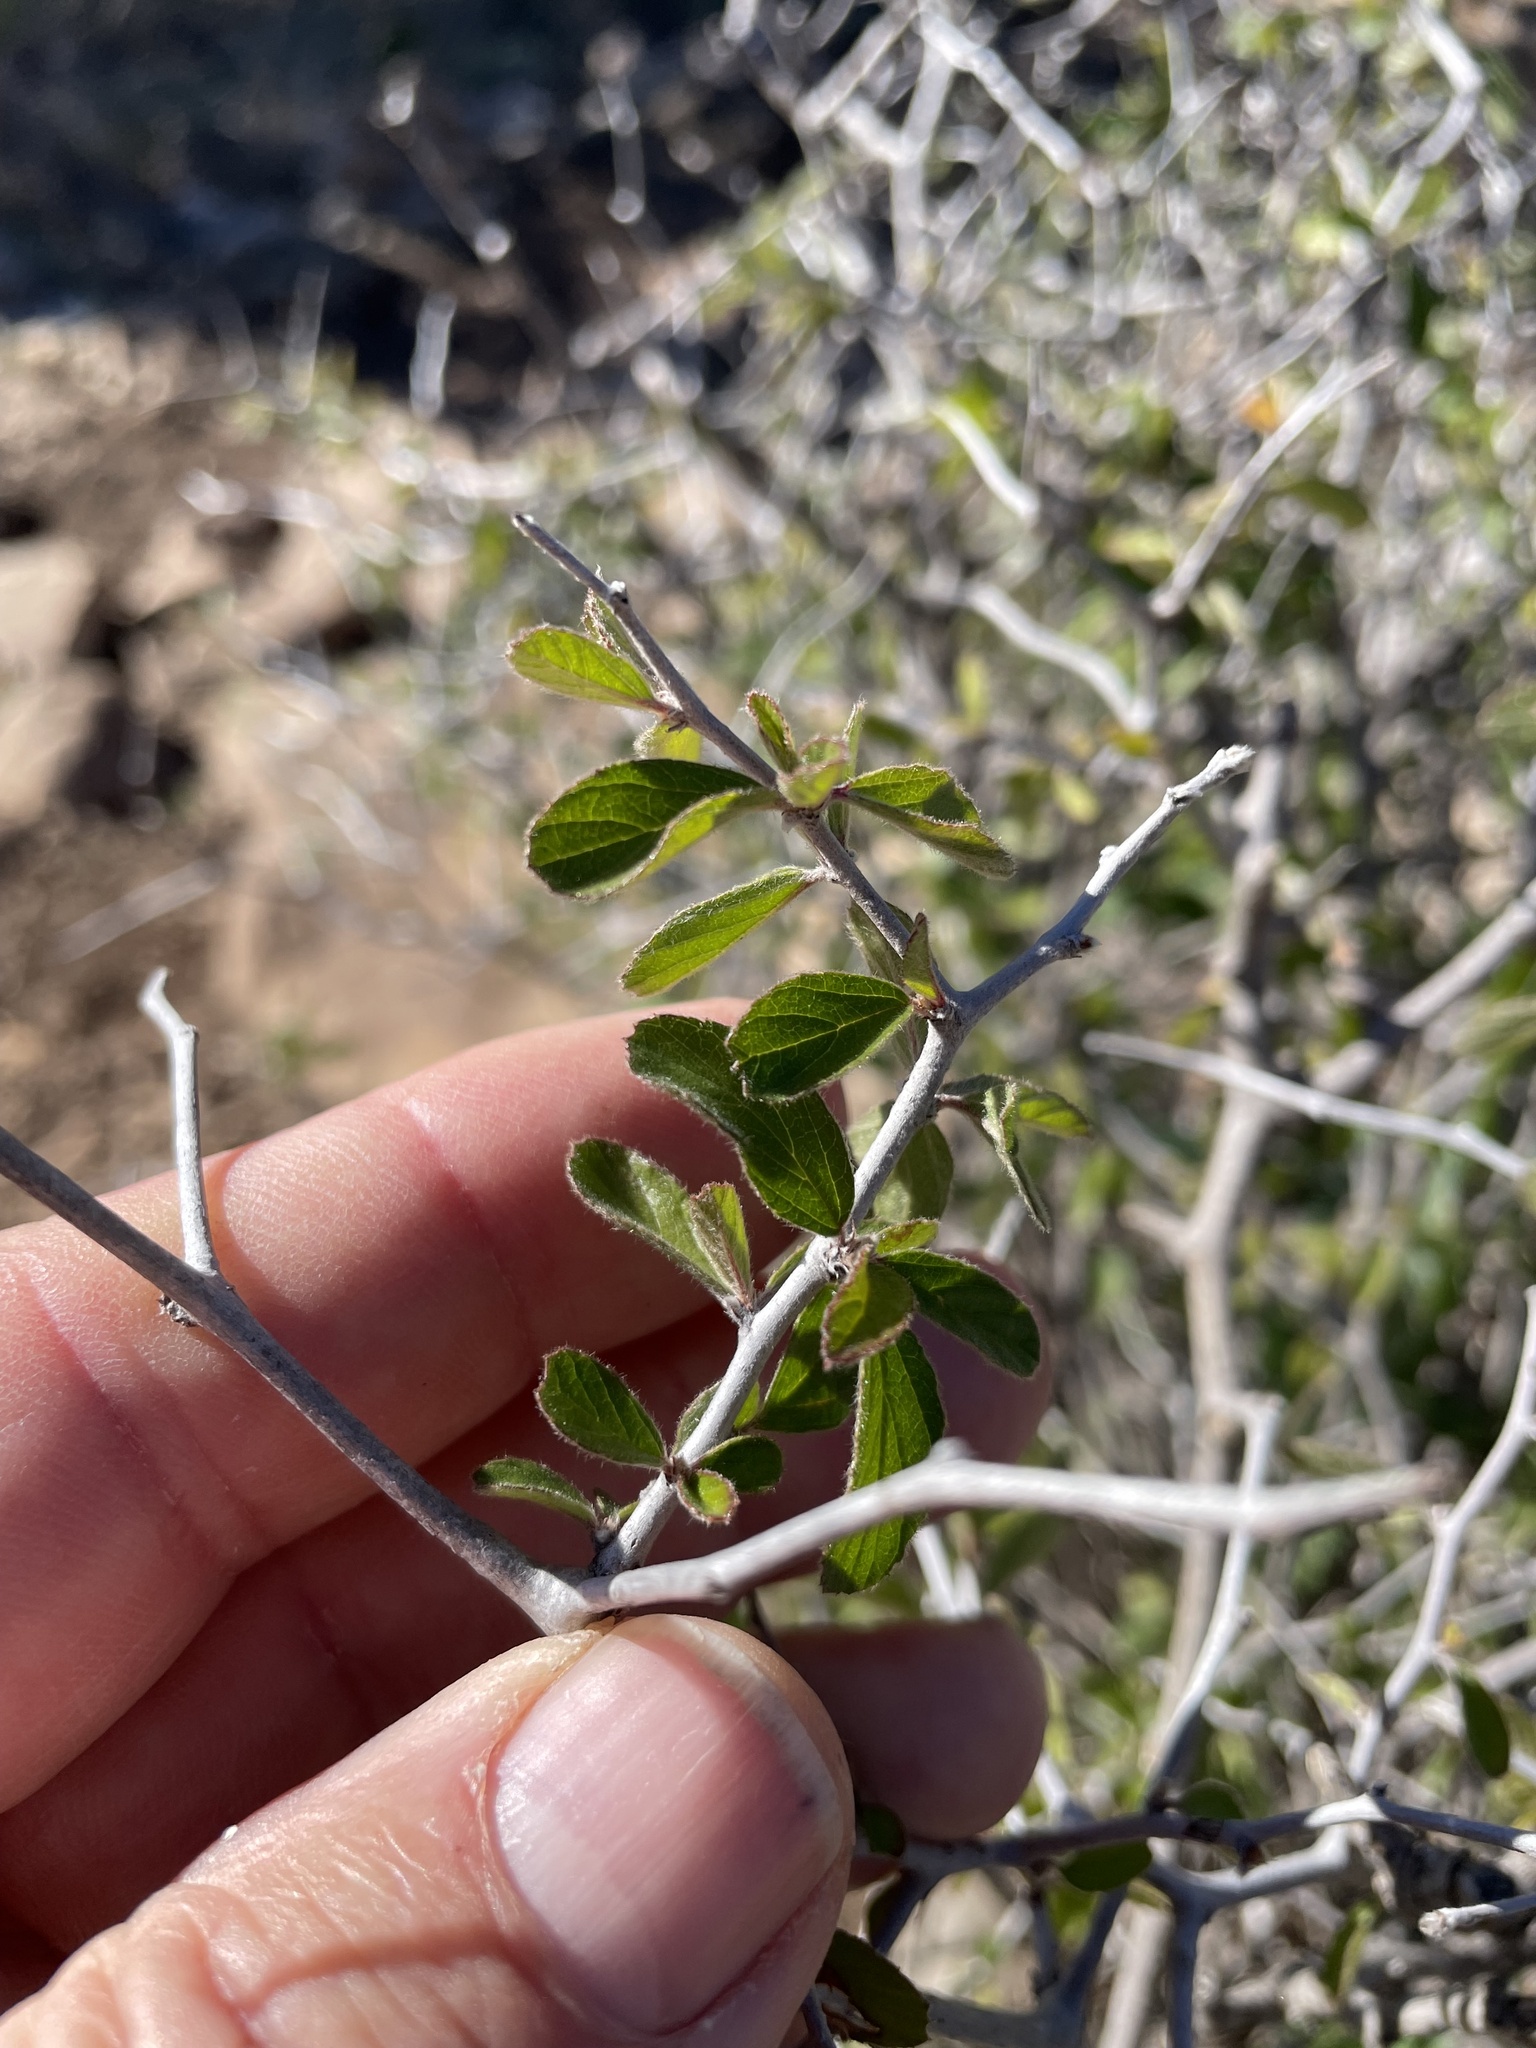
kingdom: Plantae
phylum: Tracheophyta
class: Magnoliopsida
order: Rosales
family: Rhamnaceae
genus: Colubrina
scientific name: Colubrina texensis
